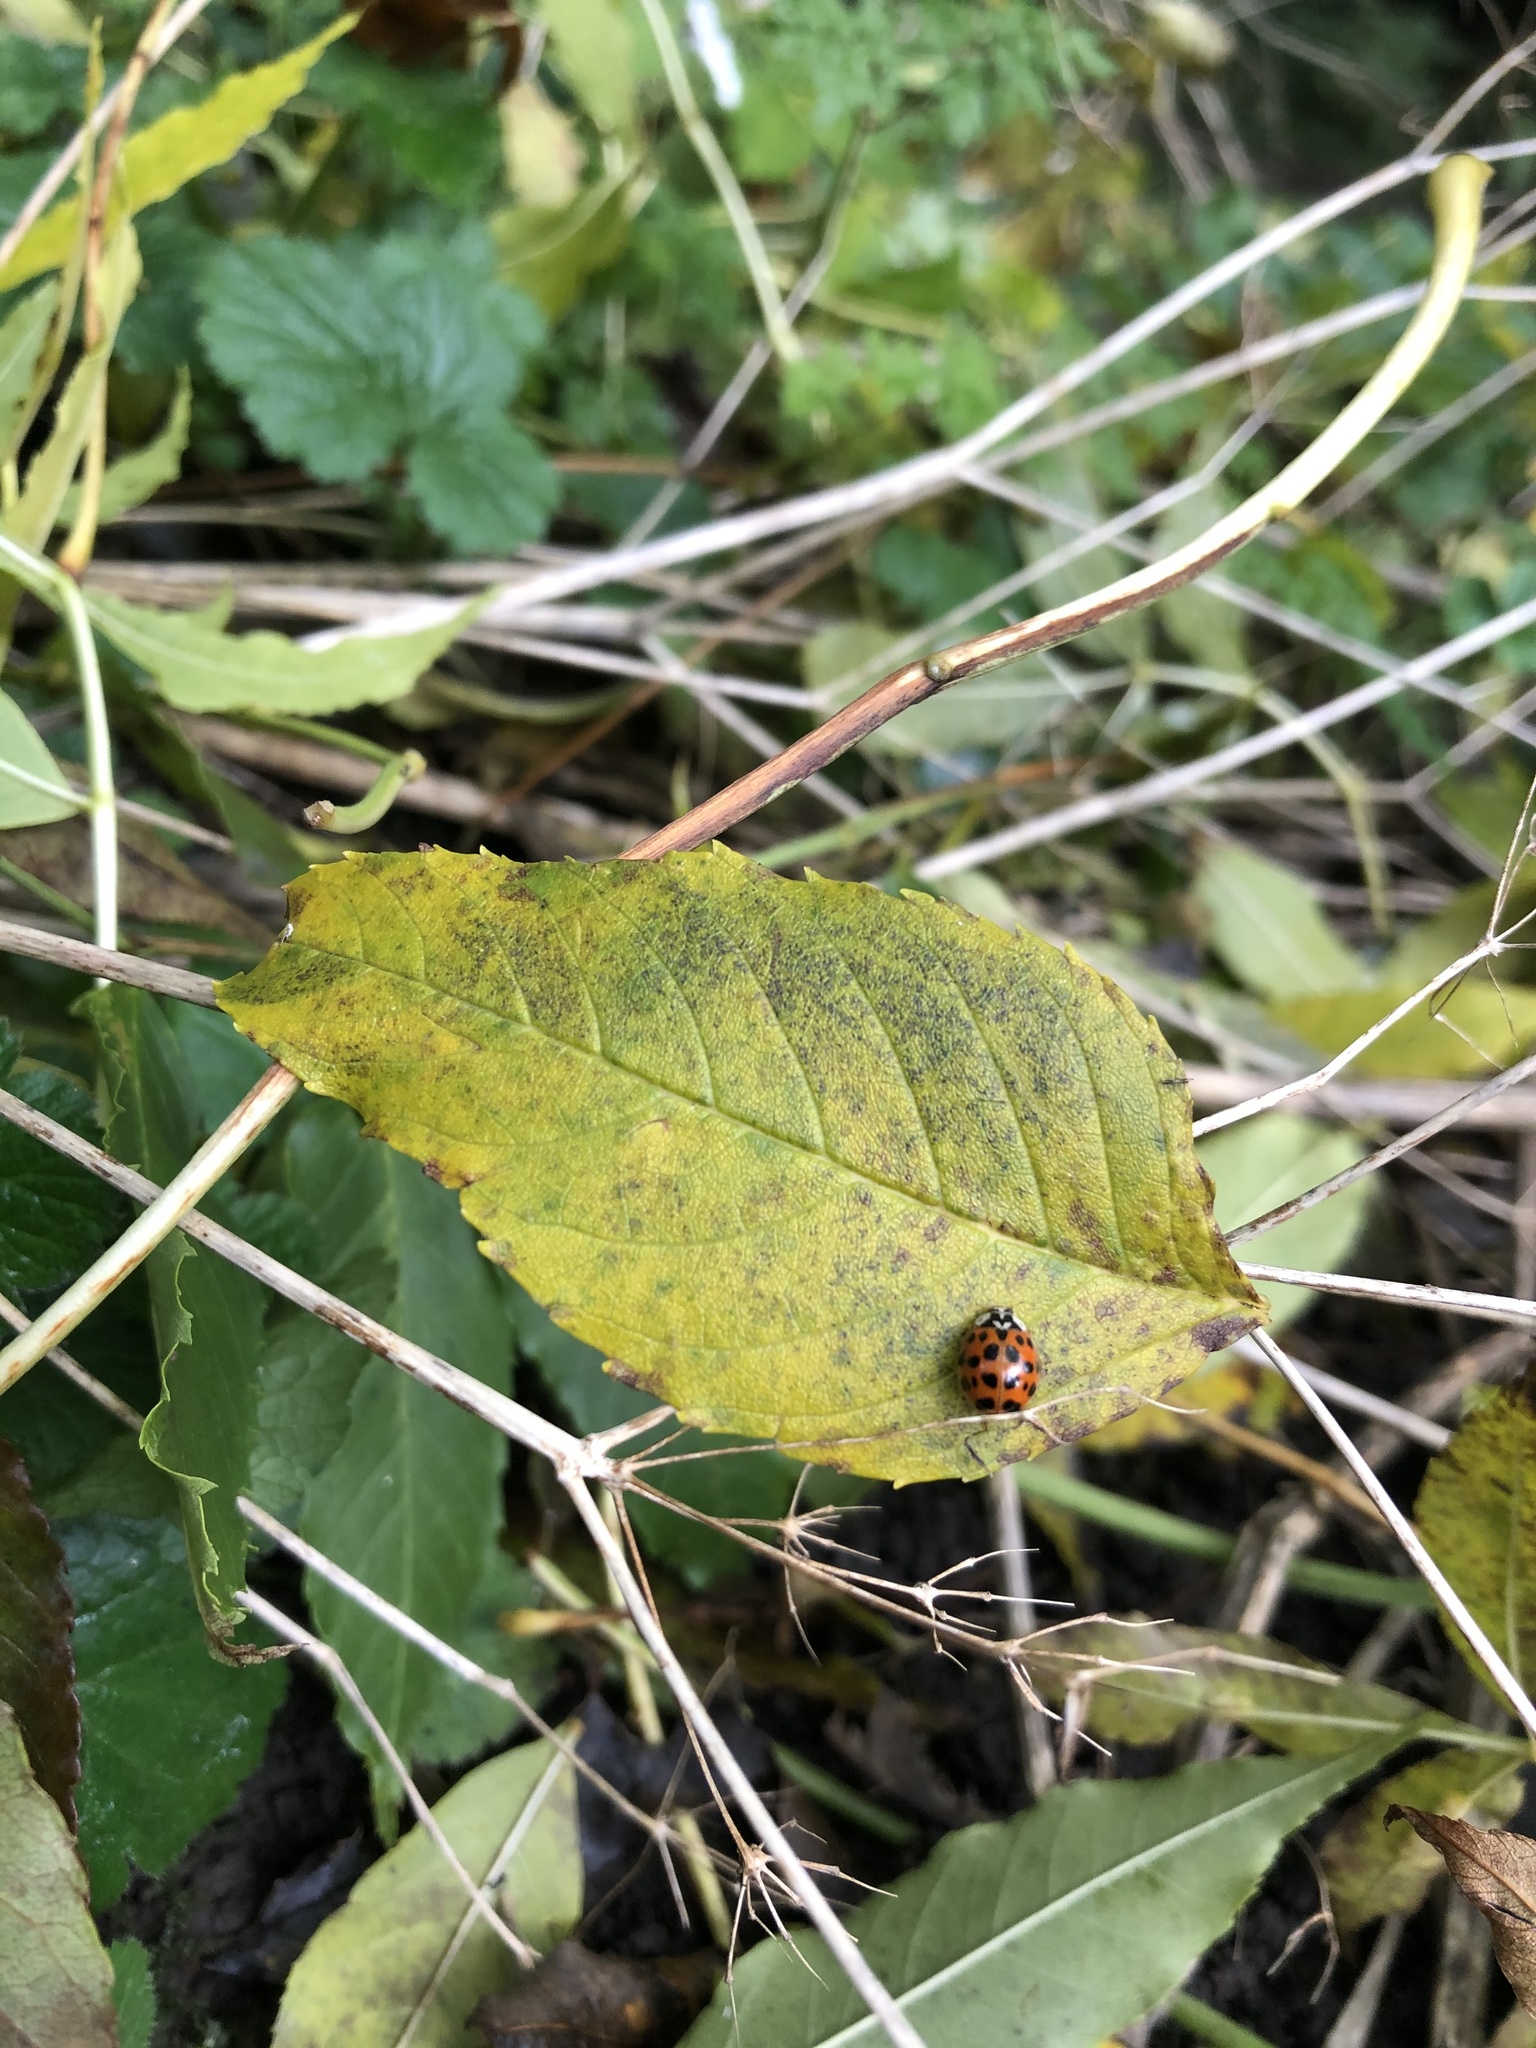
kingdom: Animalia
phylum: Arthropoda
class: Insecta
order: Coleoptera
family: Coccinellidae
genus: Harmonia
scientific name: Harmonia axyridis
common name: Harlequin ladybird
